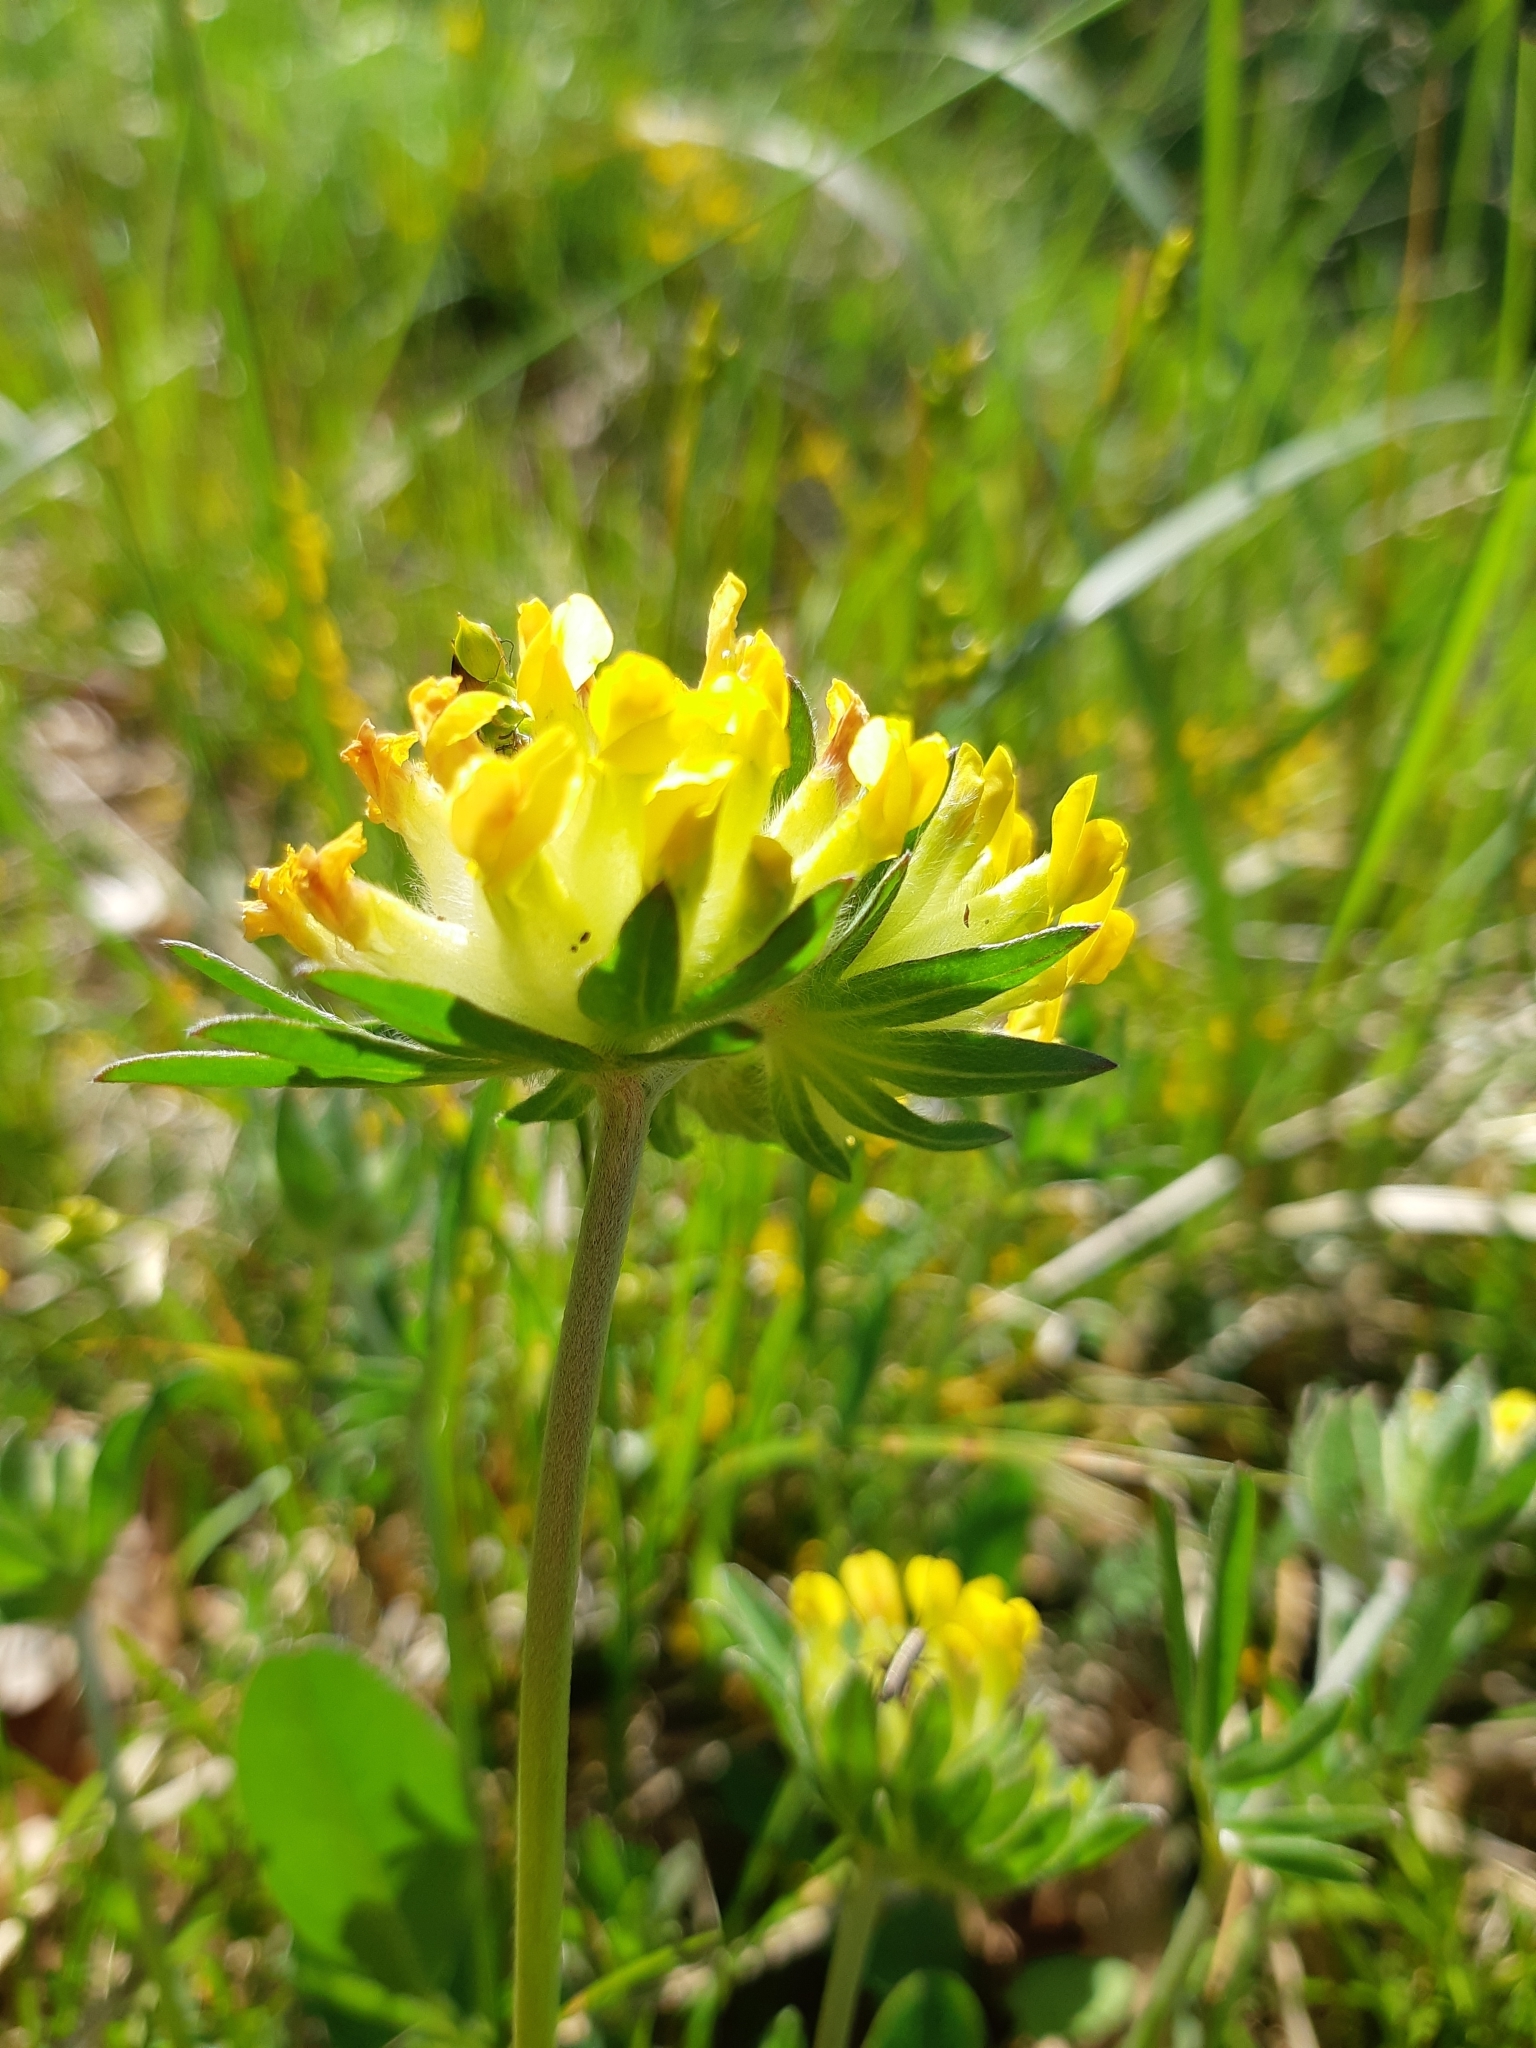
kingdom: Plantae
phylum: Tracheophyta
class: Magnoliopsida
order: Fabales
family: Fabaceae
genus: Anthyllis
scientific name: Anthyllis vulneraria
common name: Kidney vetch
